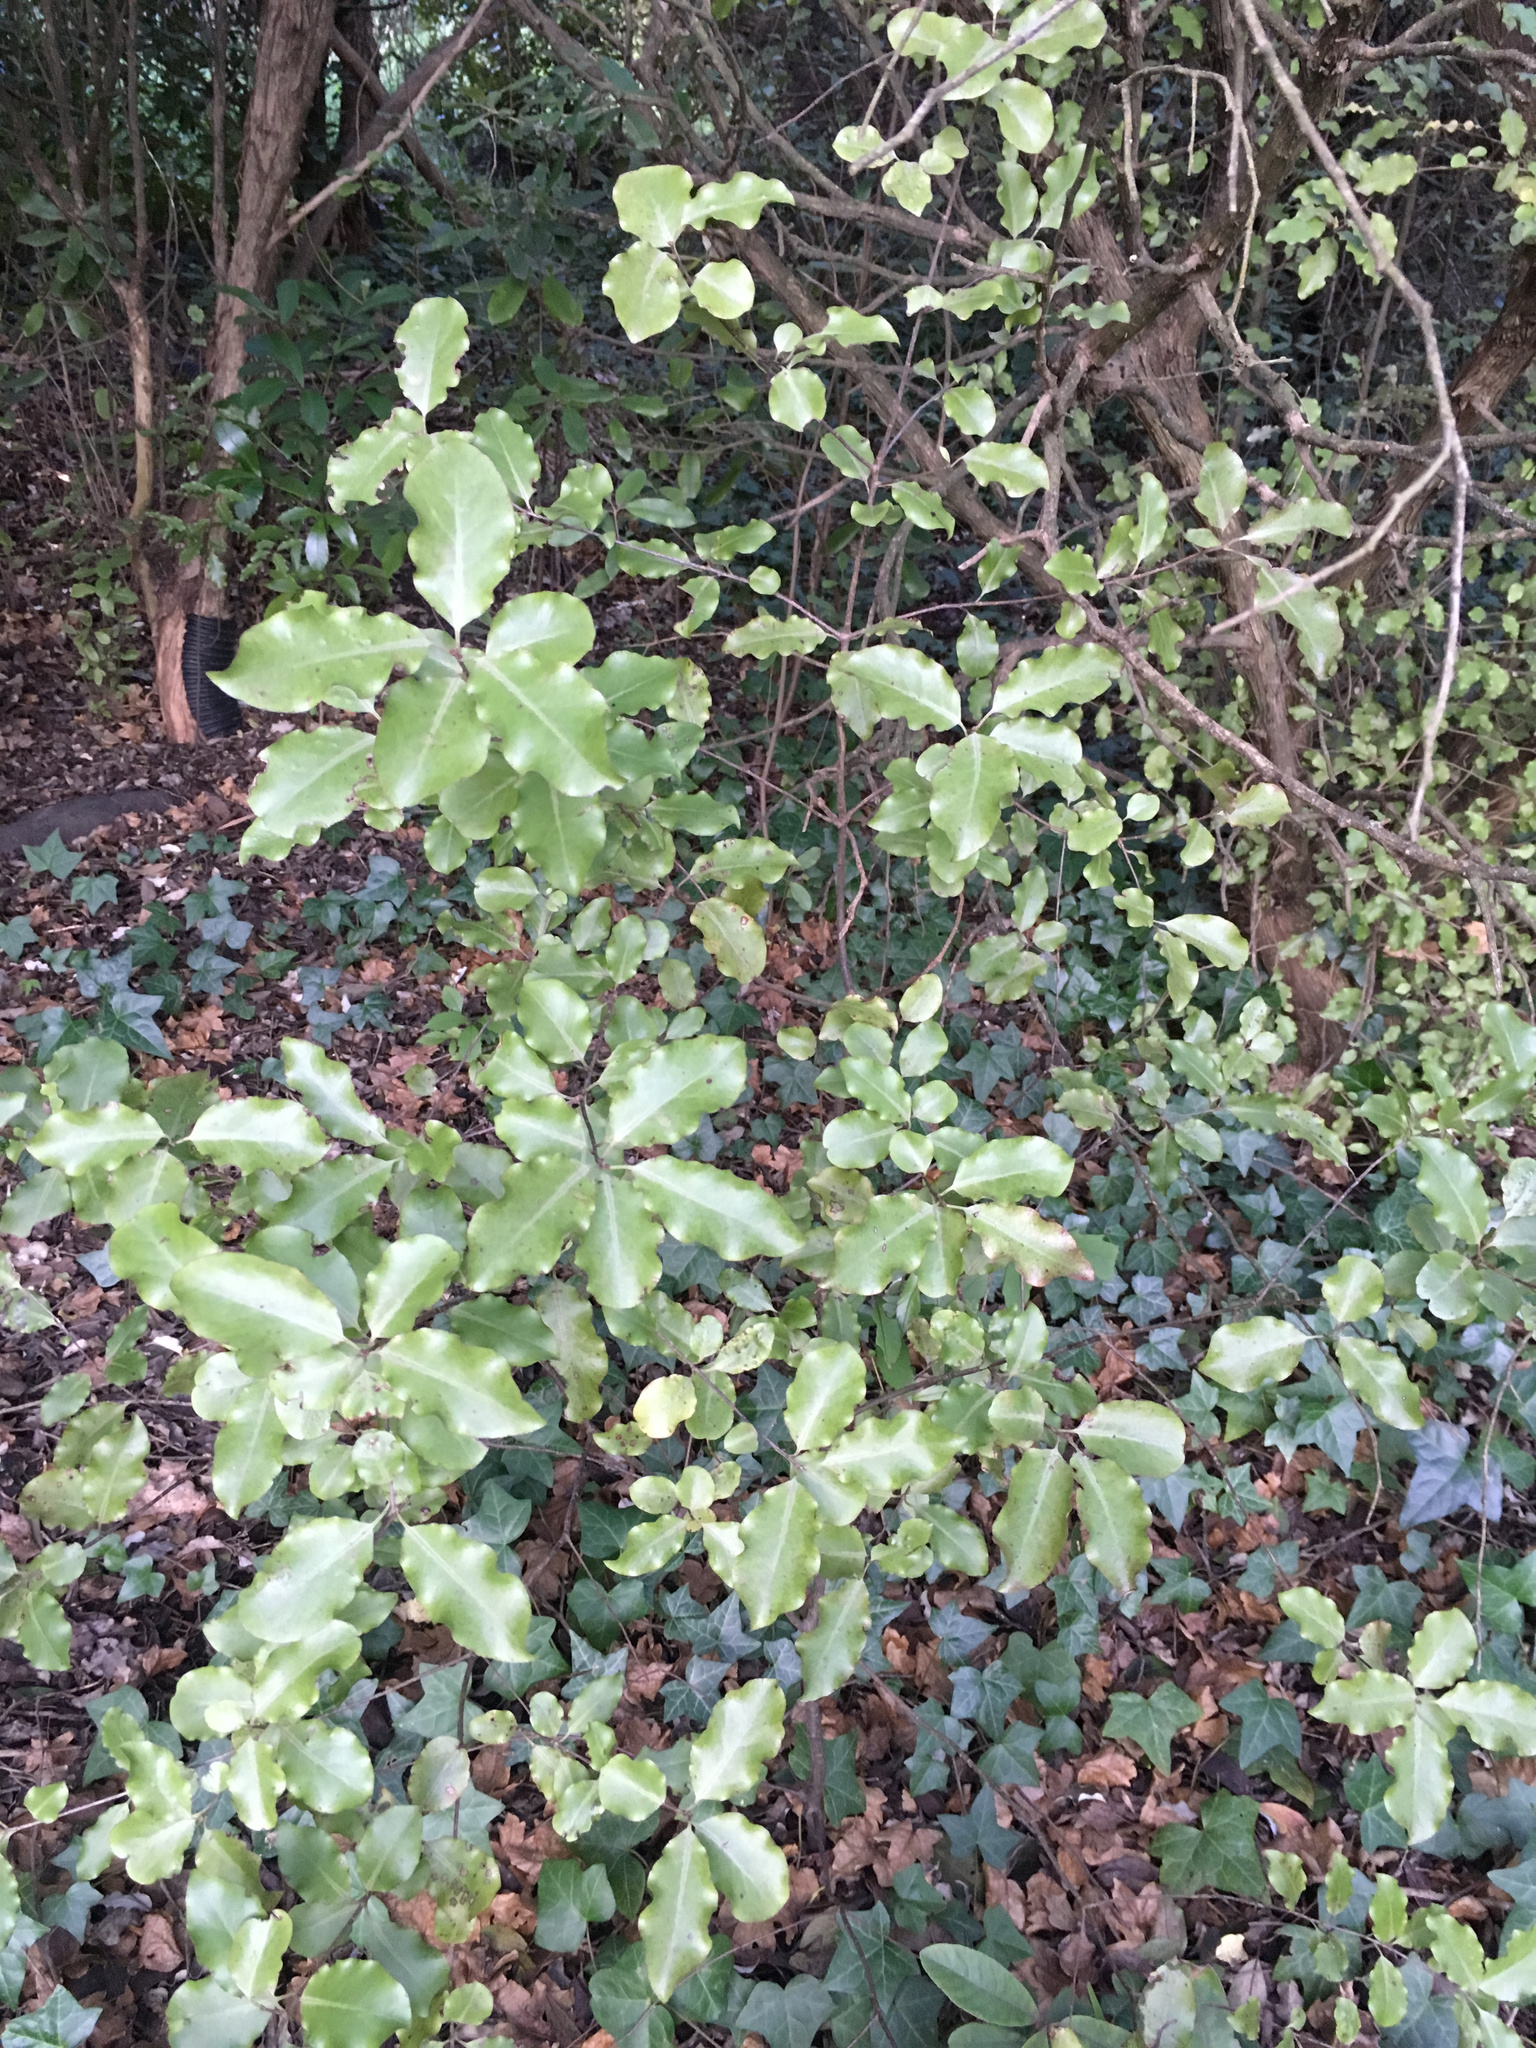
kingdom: Plantae
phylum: Tracheophyta
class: Magnoliopsida
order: Apiales
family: Pittosporaceae
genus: Pittosporum
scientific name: Pittosporum tenuifolium
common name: Kohuhu
